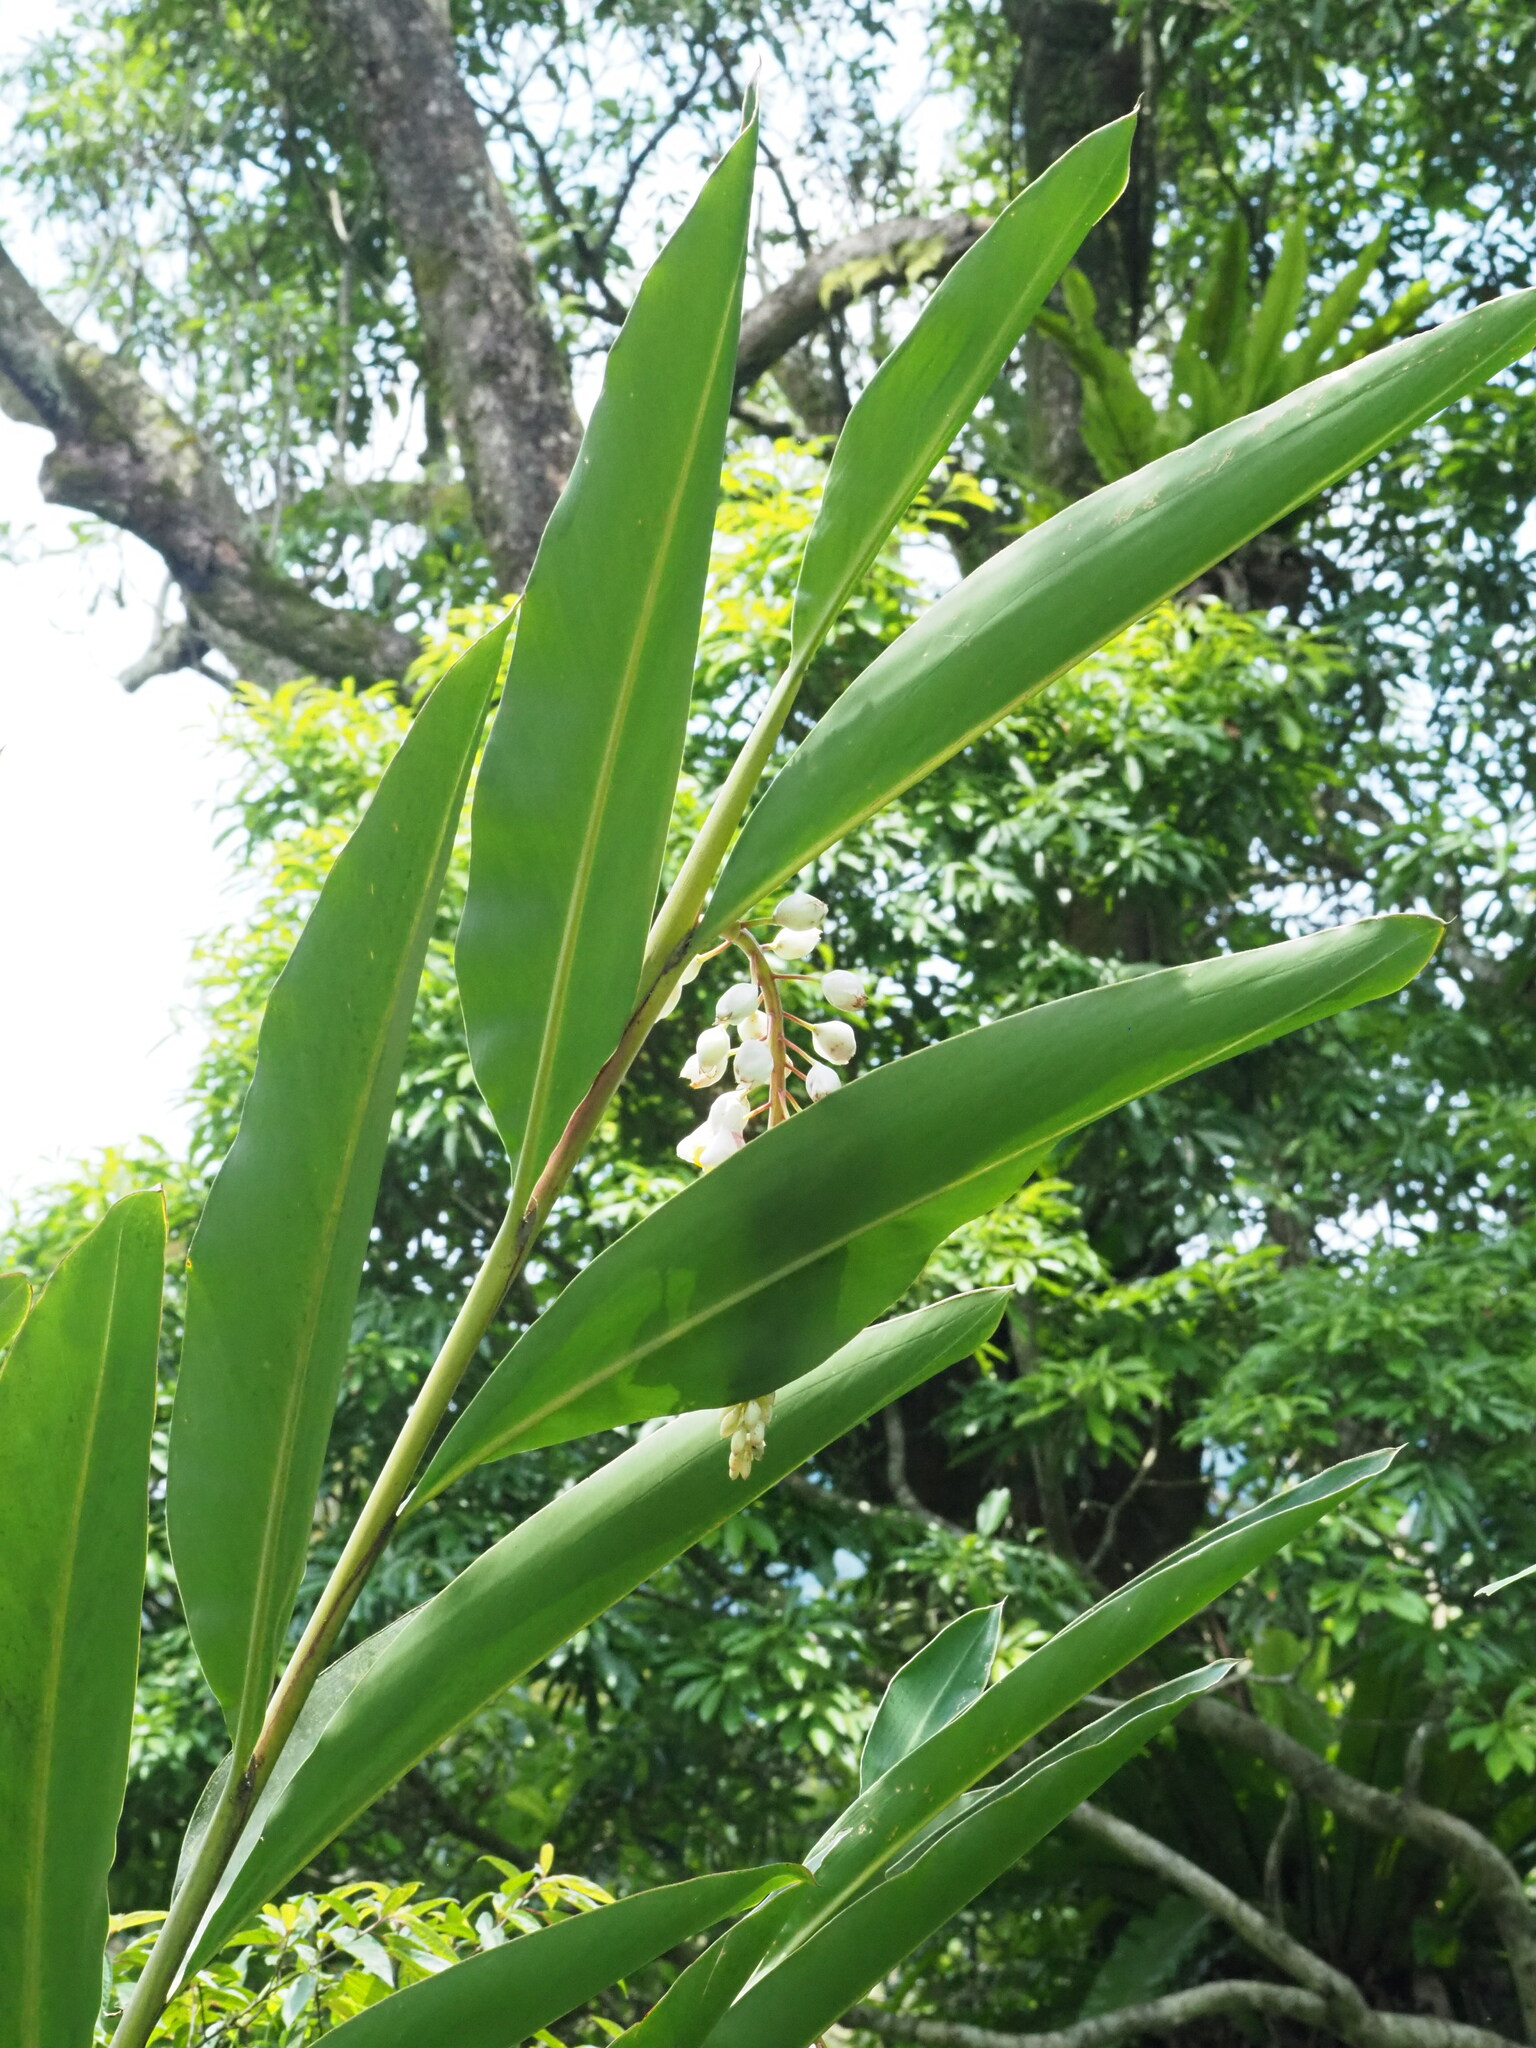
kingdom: Plantae
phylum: Tracheophyta
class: Liliopsida
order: Zingiberales
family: Zingiberaceae
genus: Alpinia
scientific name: Alpinia zerumbet
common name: Shellplant
